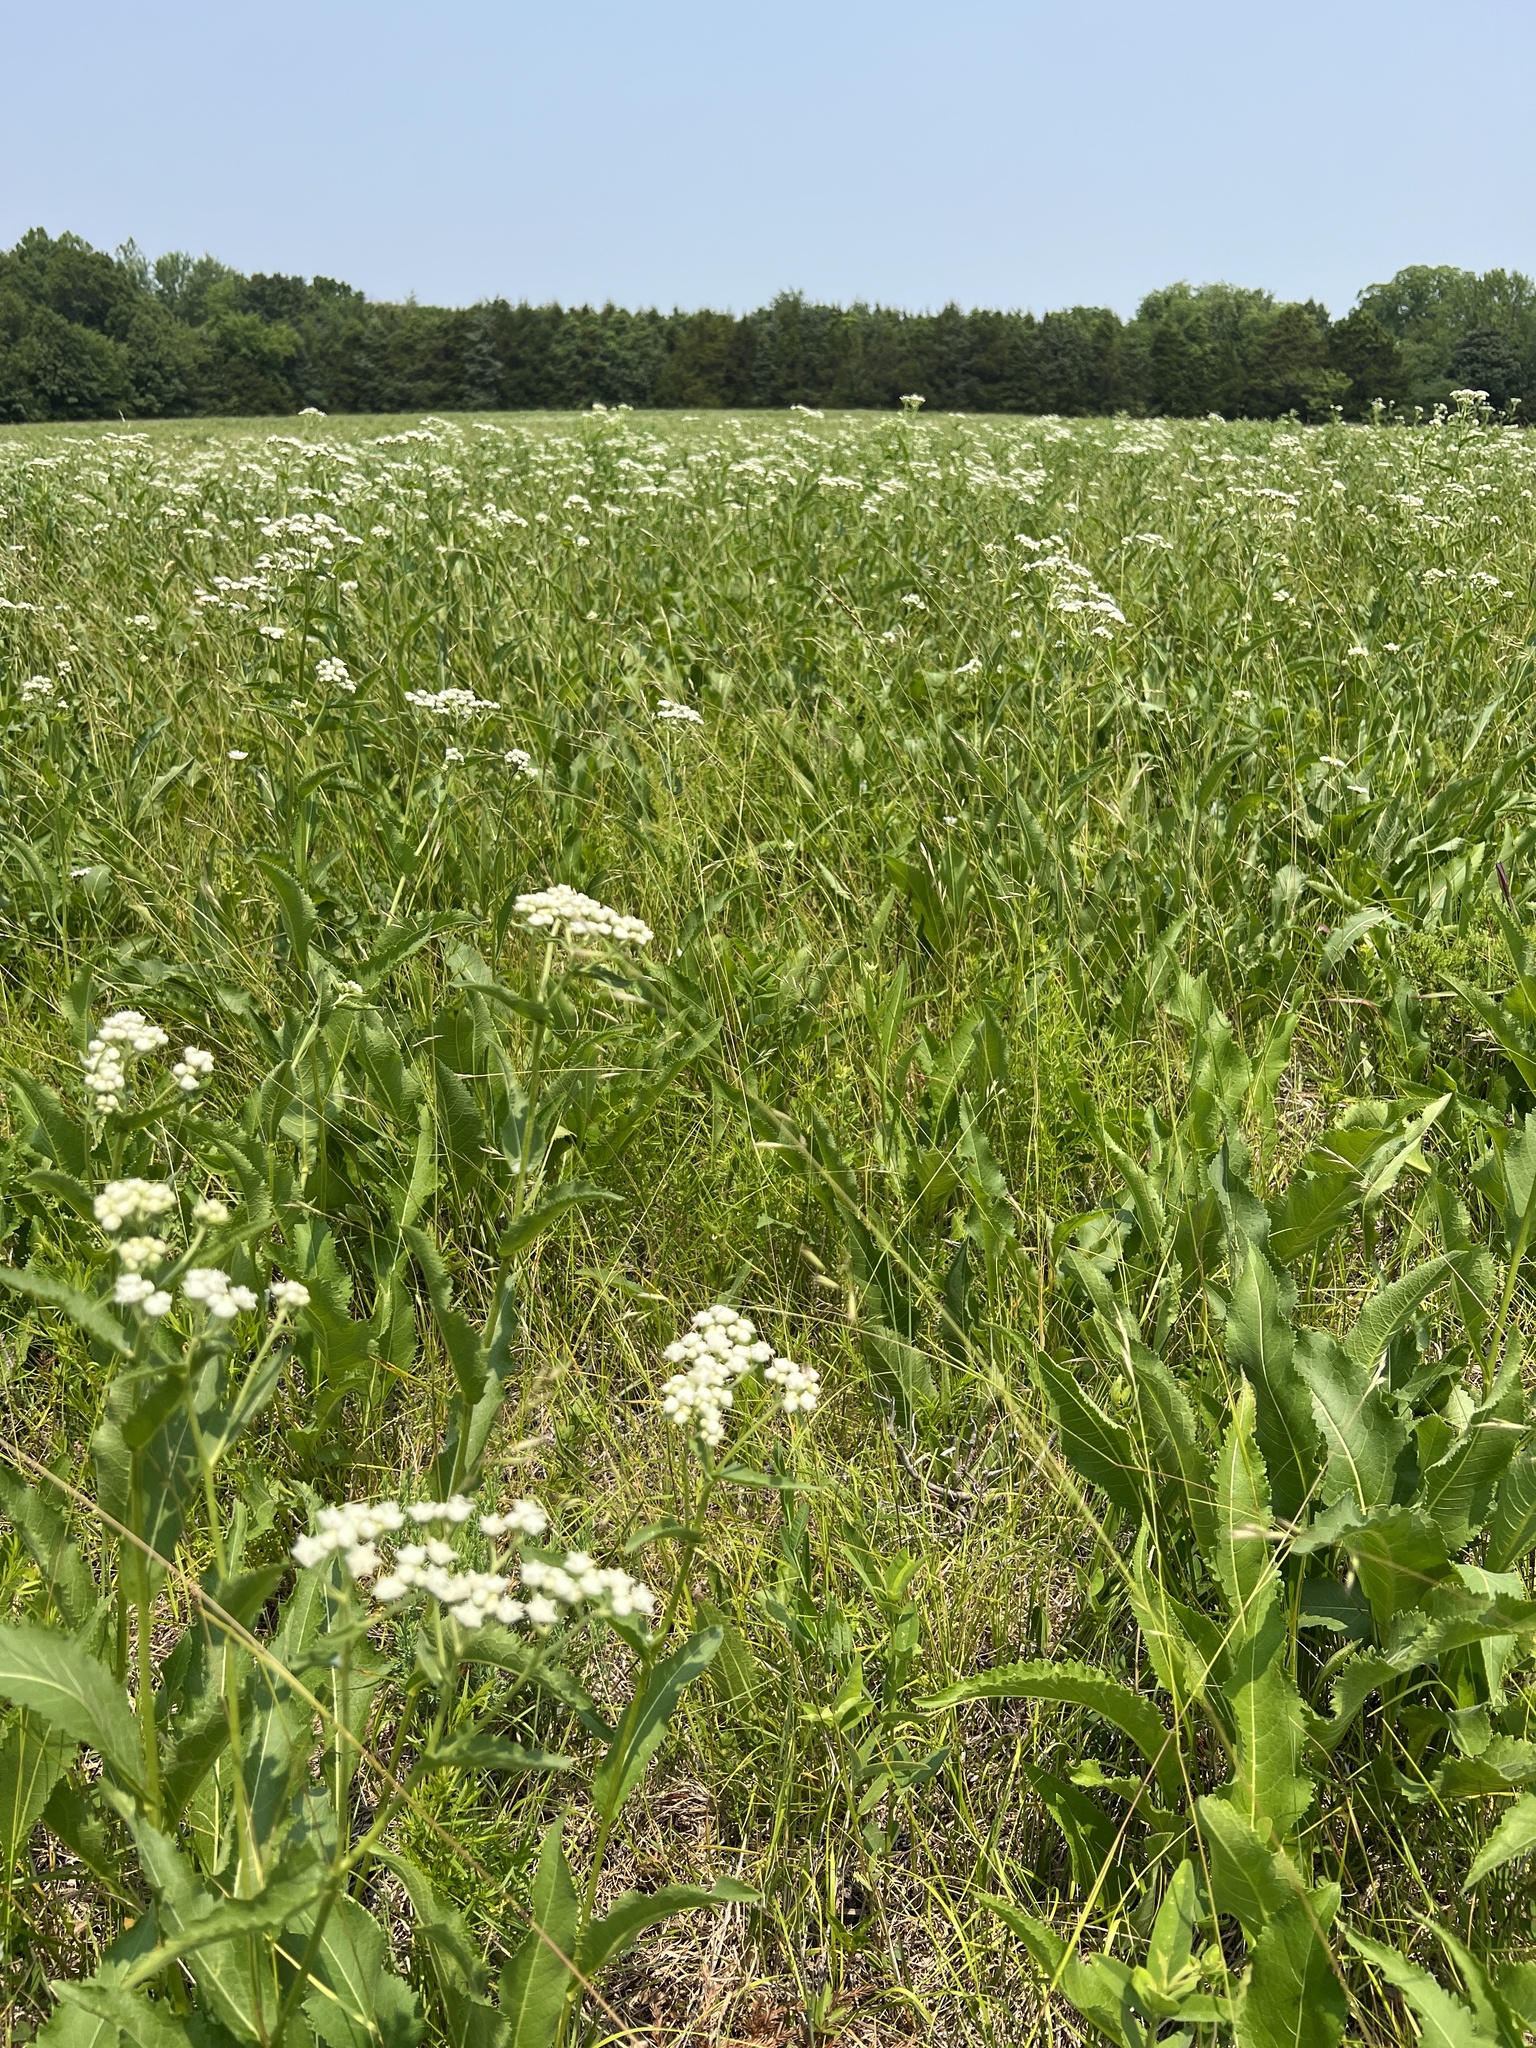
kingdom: Plantae
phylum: Tracheophyta
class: Magnoliopsida
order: Asterales
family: Asteraceae
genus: Parthenium
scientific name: Parthenium integrifolium
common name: American feverfew
